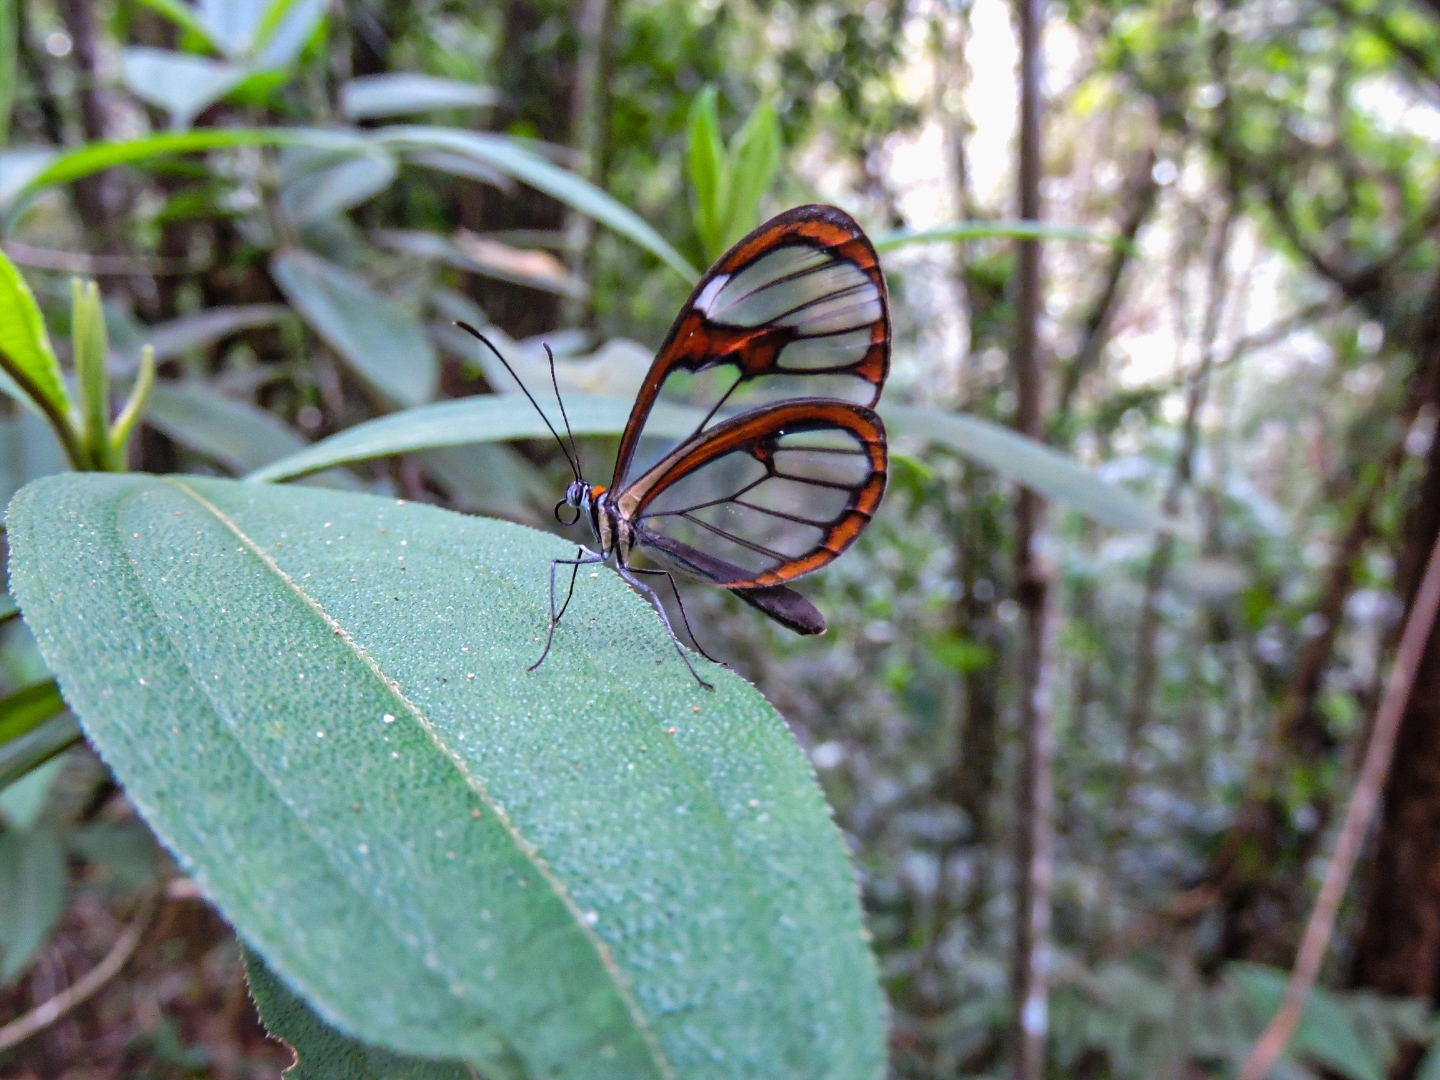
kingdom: Animalia
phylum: Arthropoda
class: Insecta
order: Lepidoptera
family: Nymphalidae
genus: Ithomia
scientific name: Ithomia drymo
